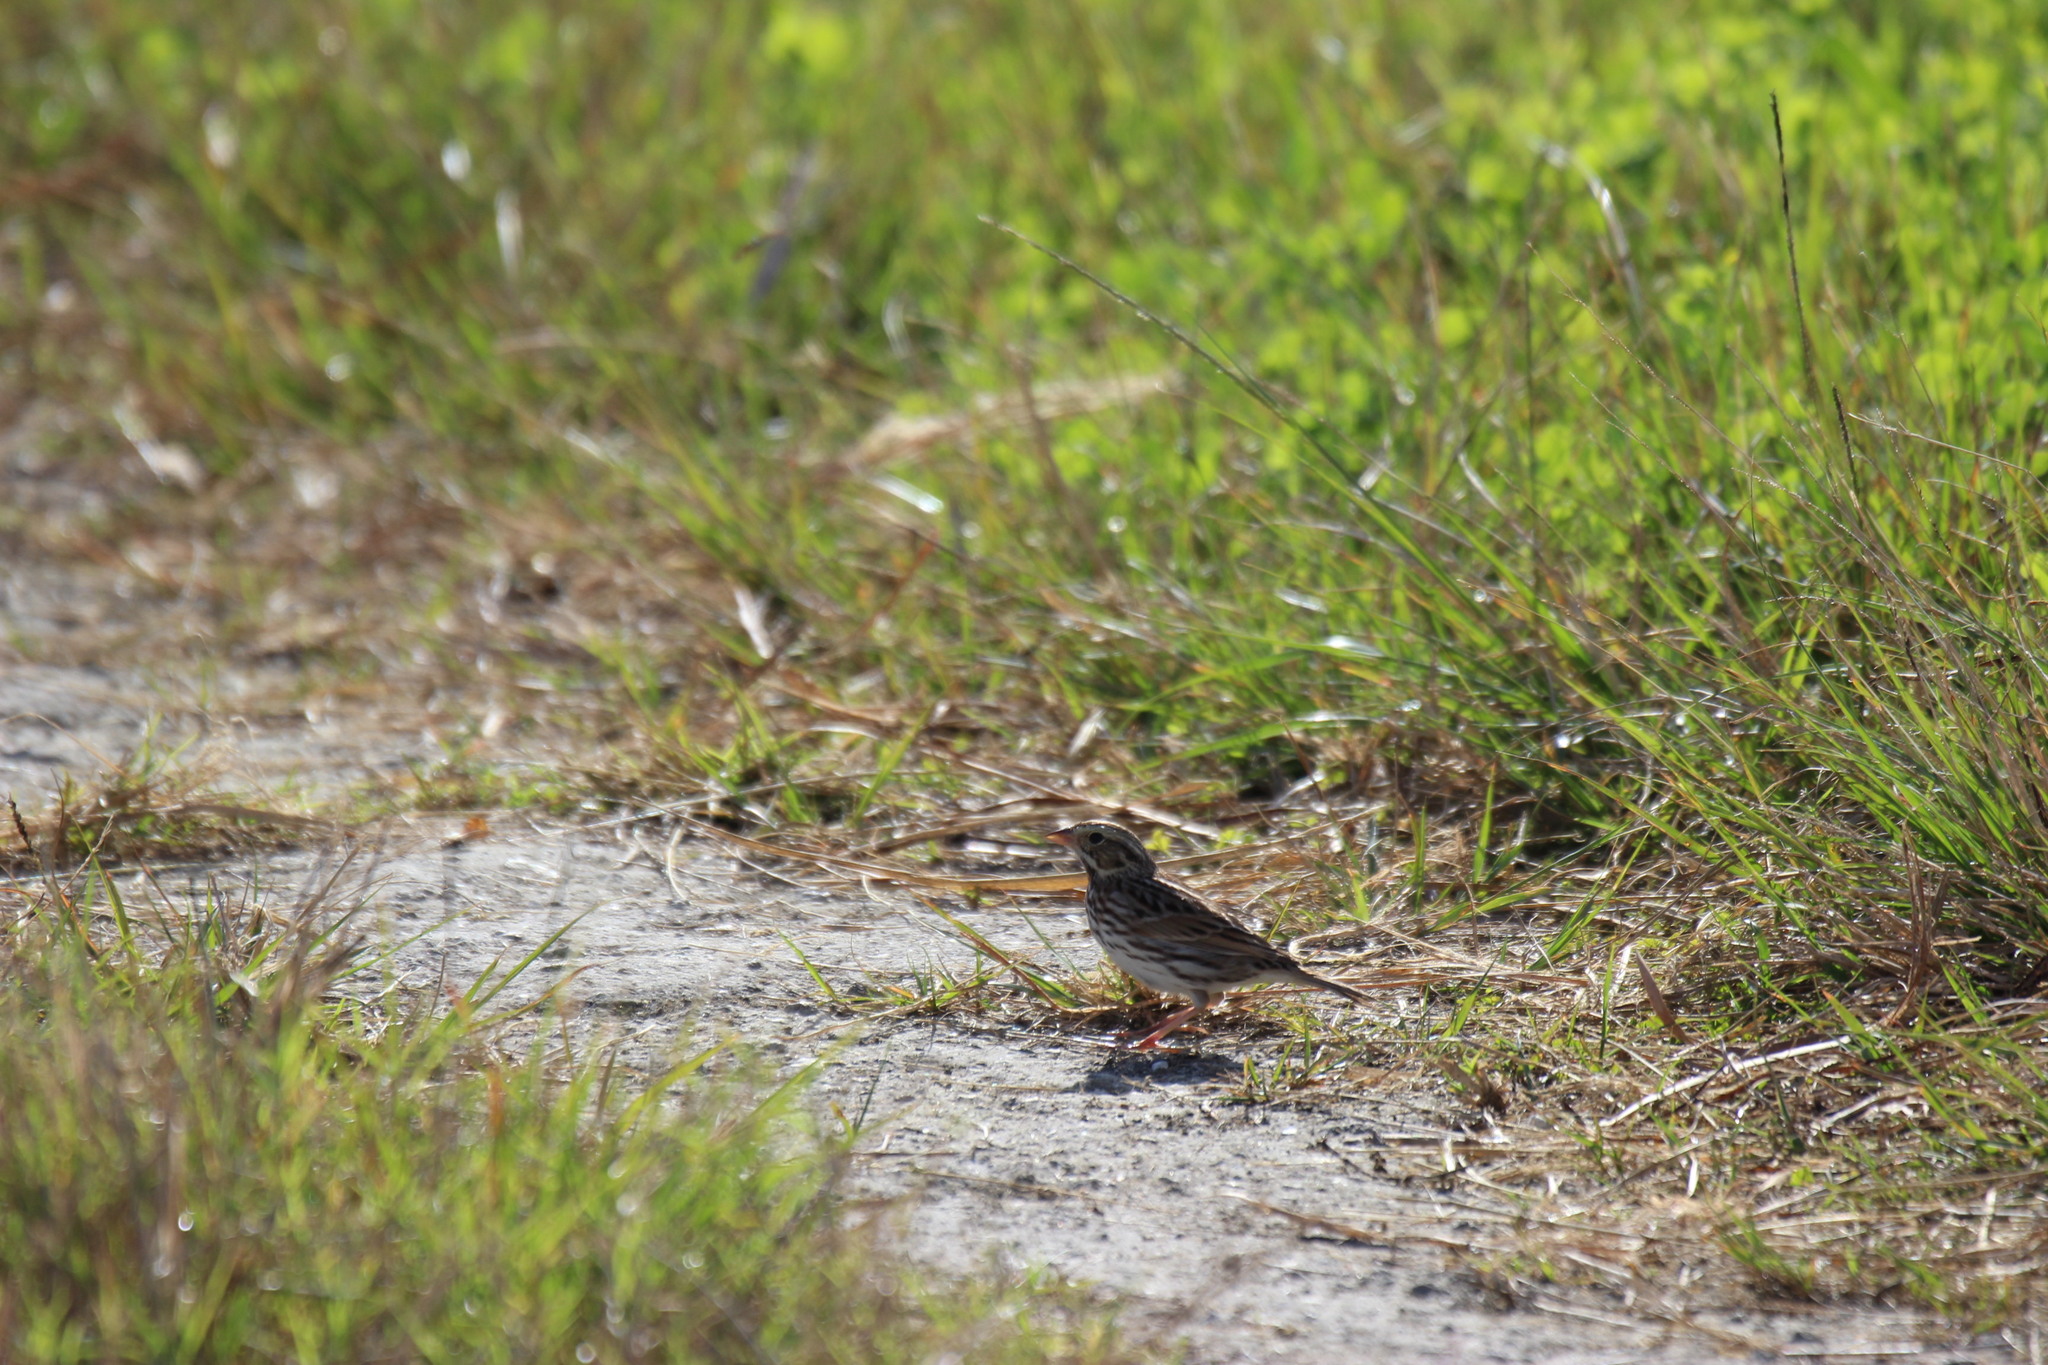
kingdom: Animalia
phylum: Chordata
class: Aves
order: Passeriformes
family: Passerellidae
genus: Passerculus
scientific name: Passerculus sandwichensis
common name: Savannah sparrow
